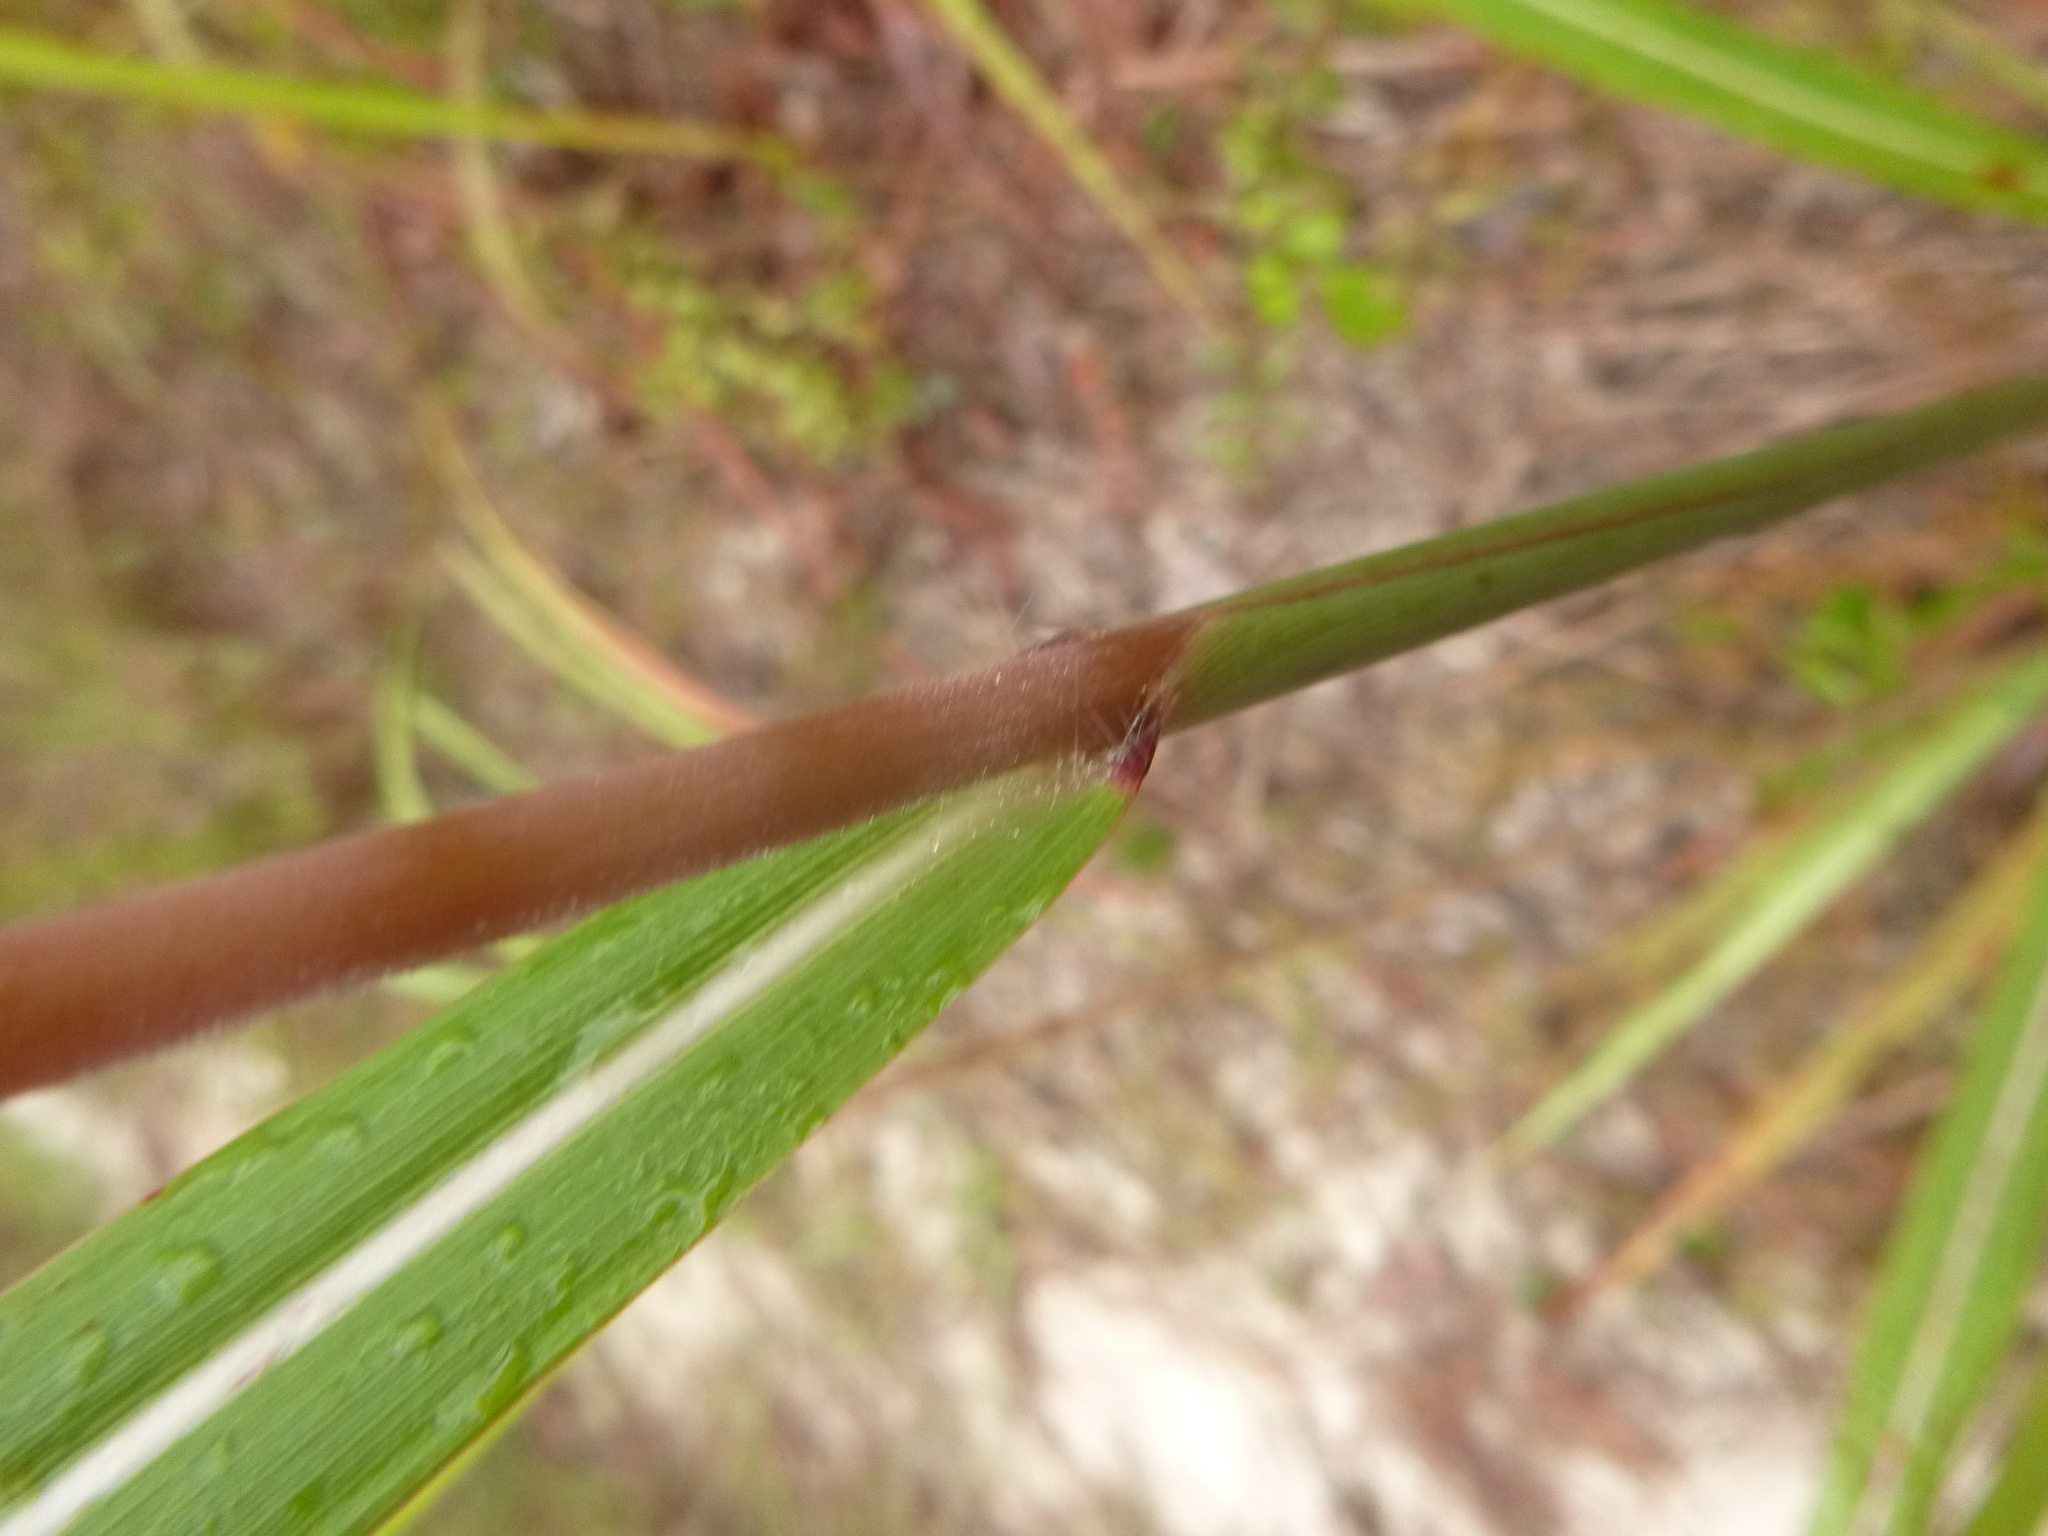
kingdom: Plantae
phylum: Tracheophyta
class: Liliopsida
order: Poales
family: Poaceae
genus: Erianthus
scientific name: Erianthus alopecuroides
